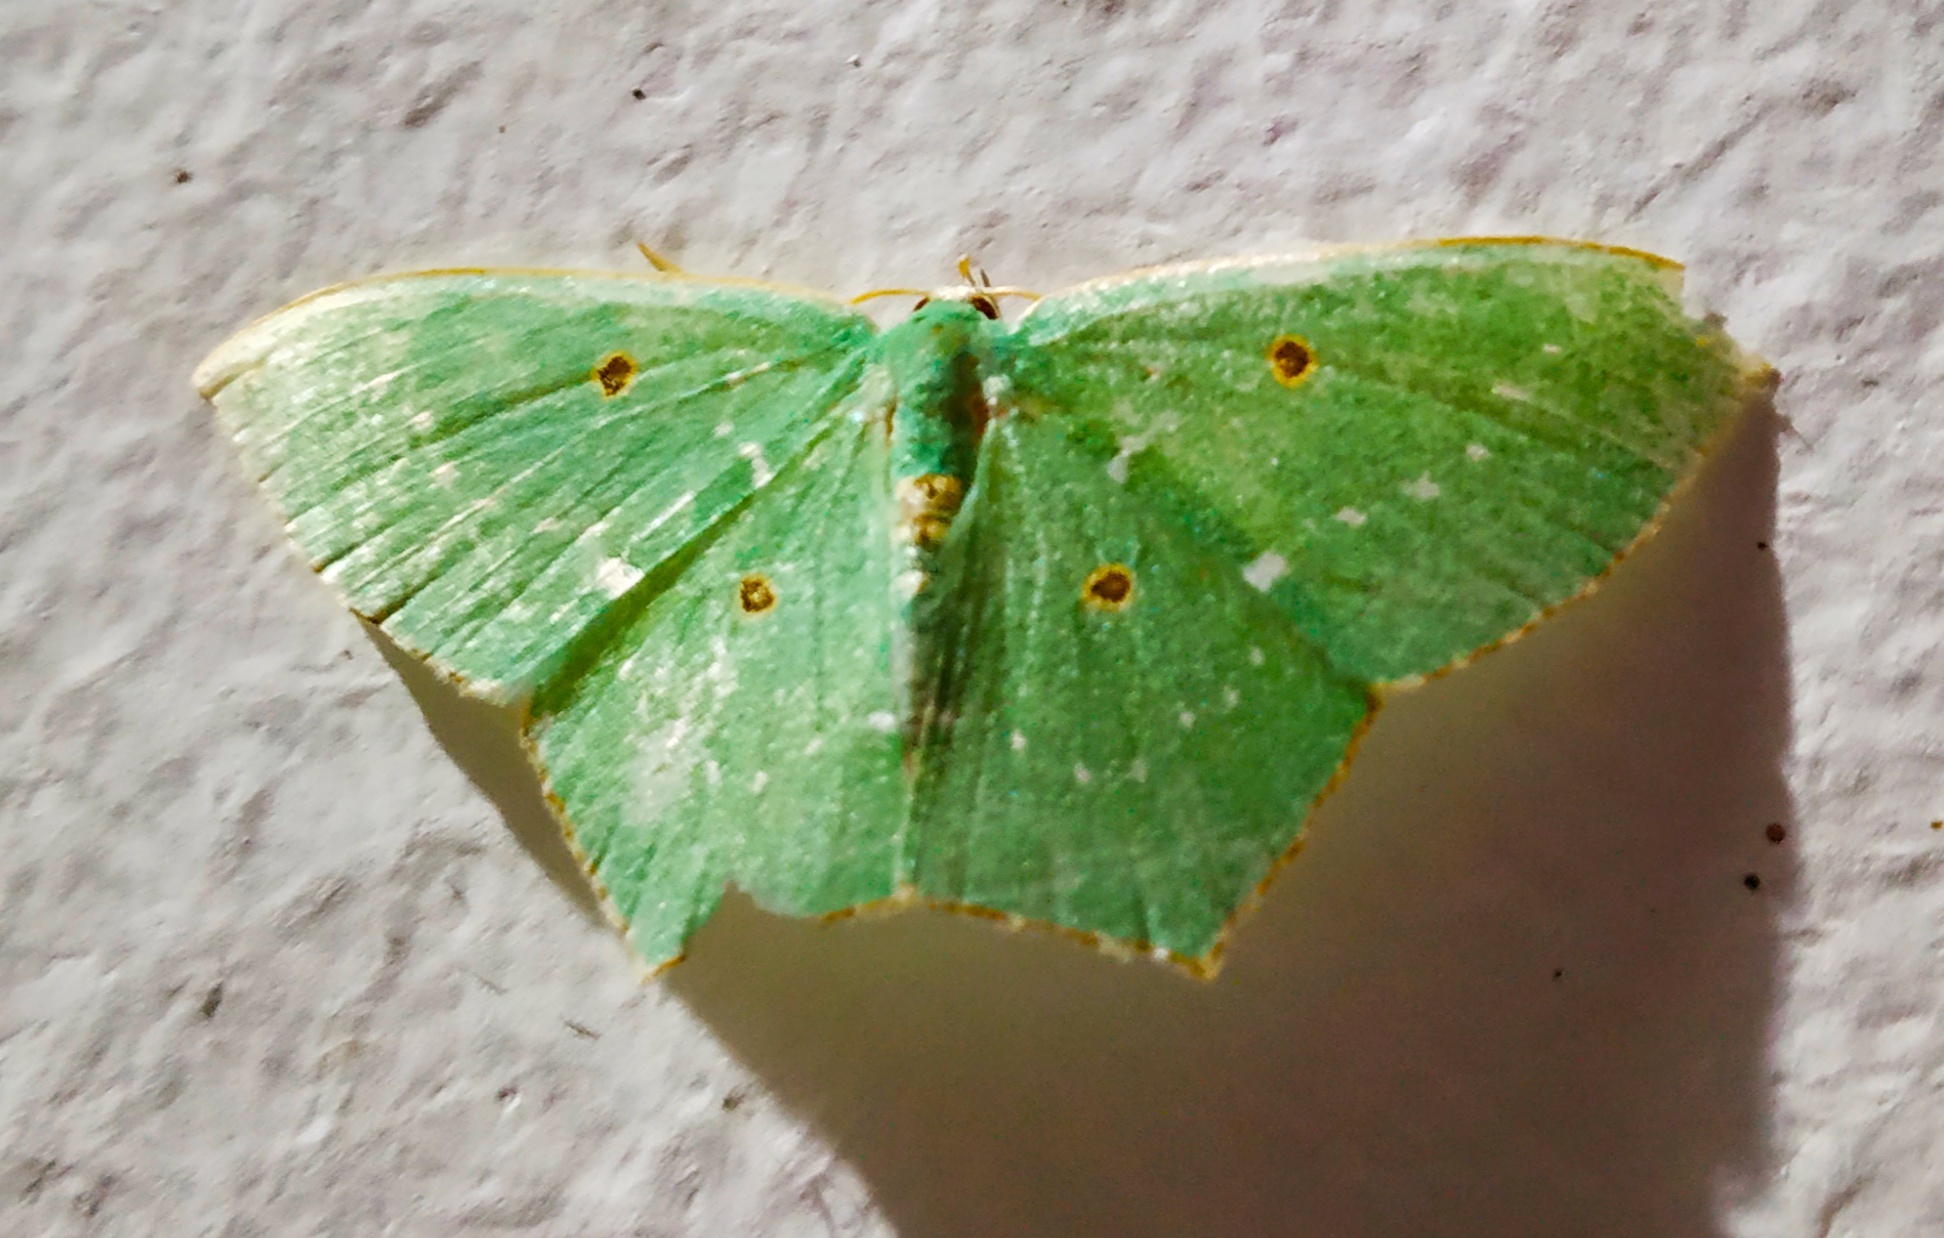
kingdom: Animalia
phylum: Arthropoda
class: Insecta
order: Lepidoptera
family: Geometridae
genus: Cyclothea
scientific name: Cyclothea disjuncta
